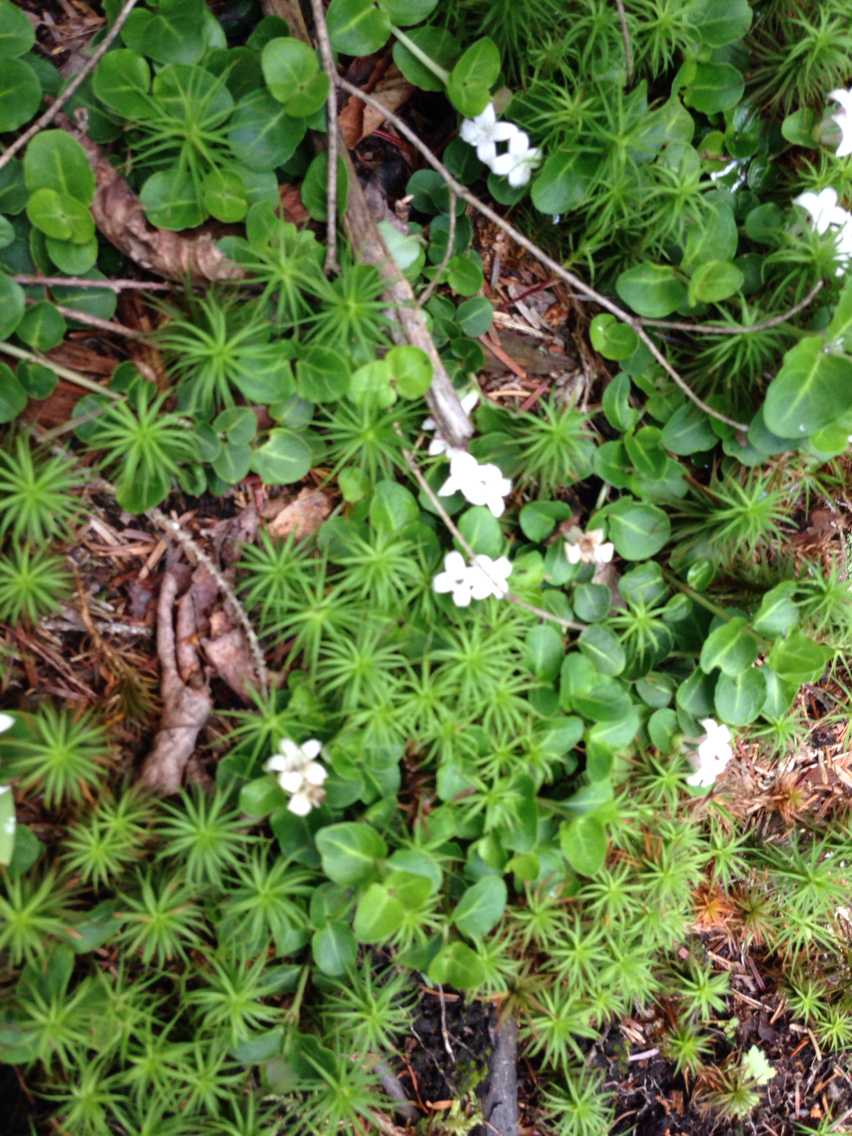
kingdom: Plantae
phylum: Tracheophyta
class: Magnoliopsida
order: Gentianales
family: Rubiaceae
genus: Mitchella
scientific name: Mitchella repens
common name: Partridge-berry
